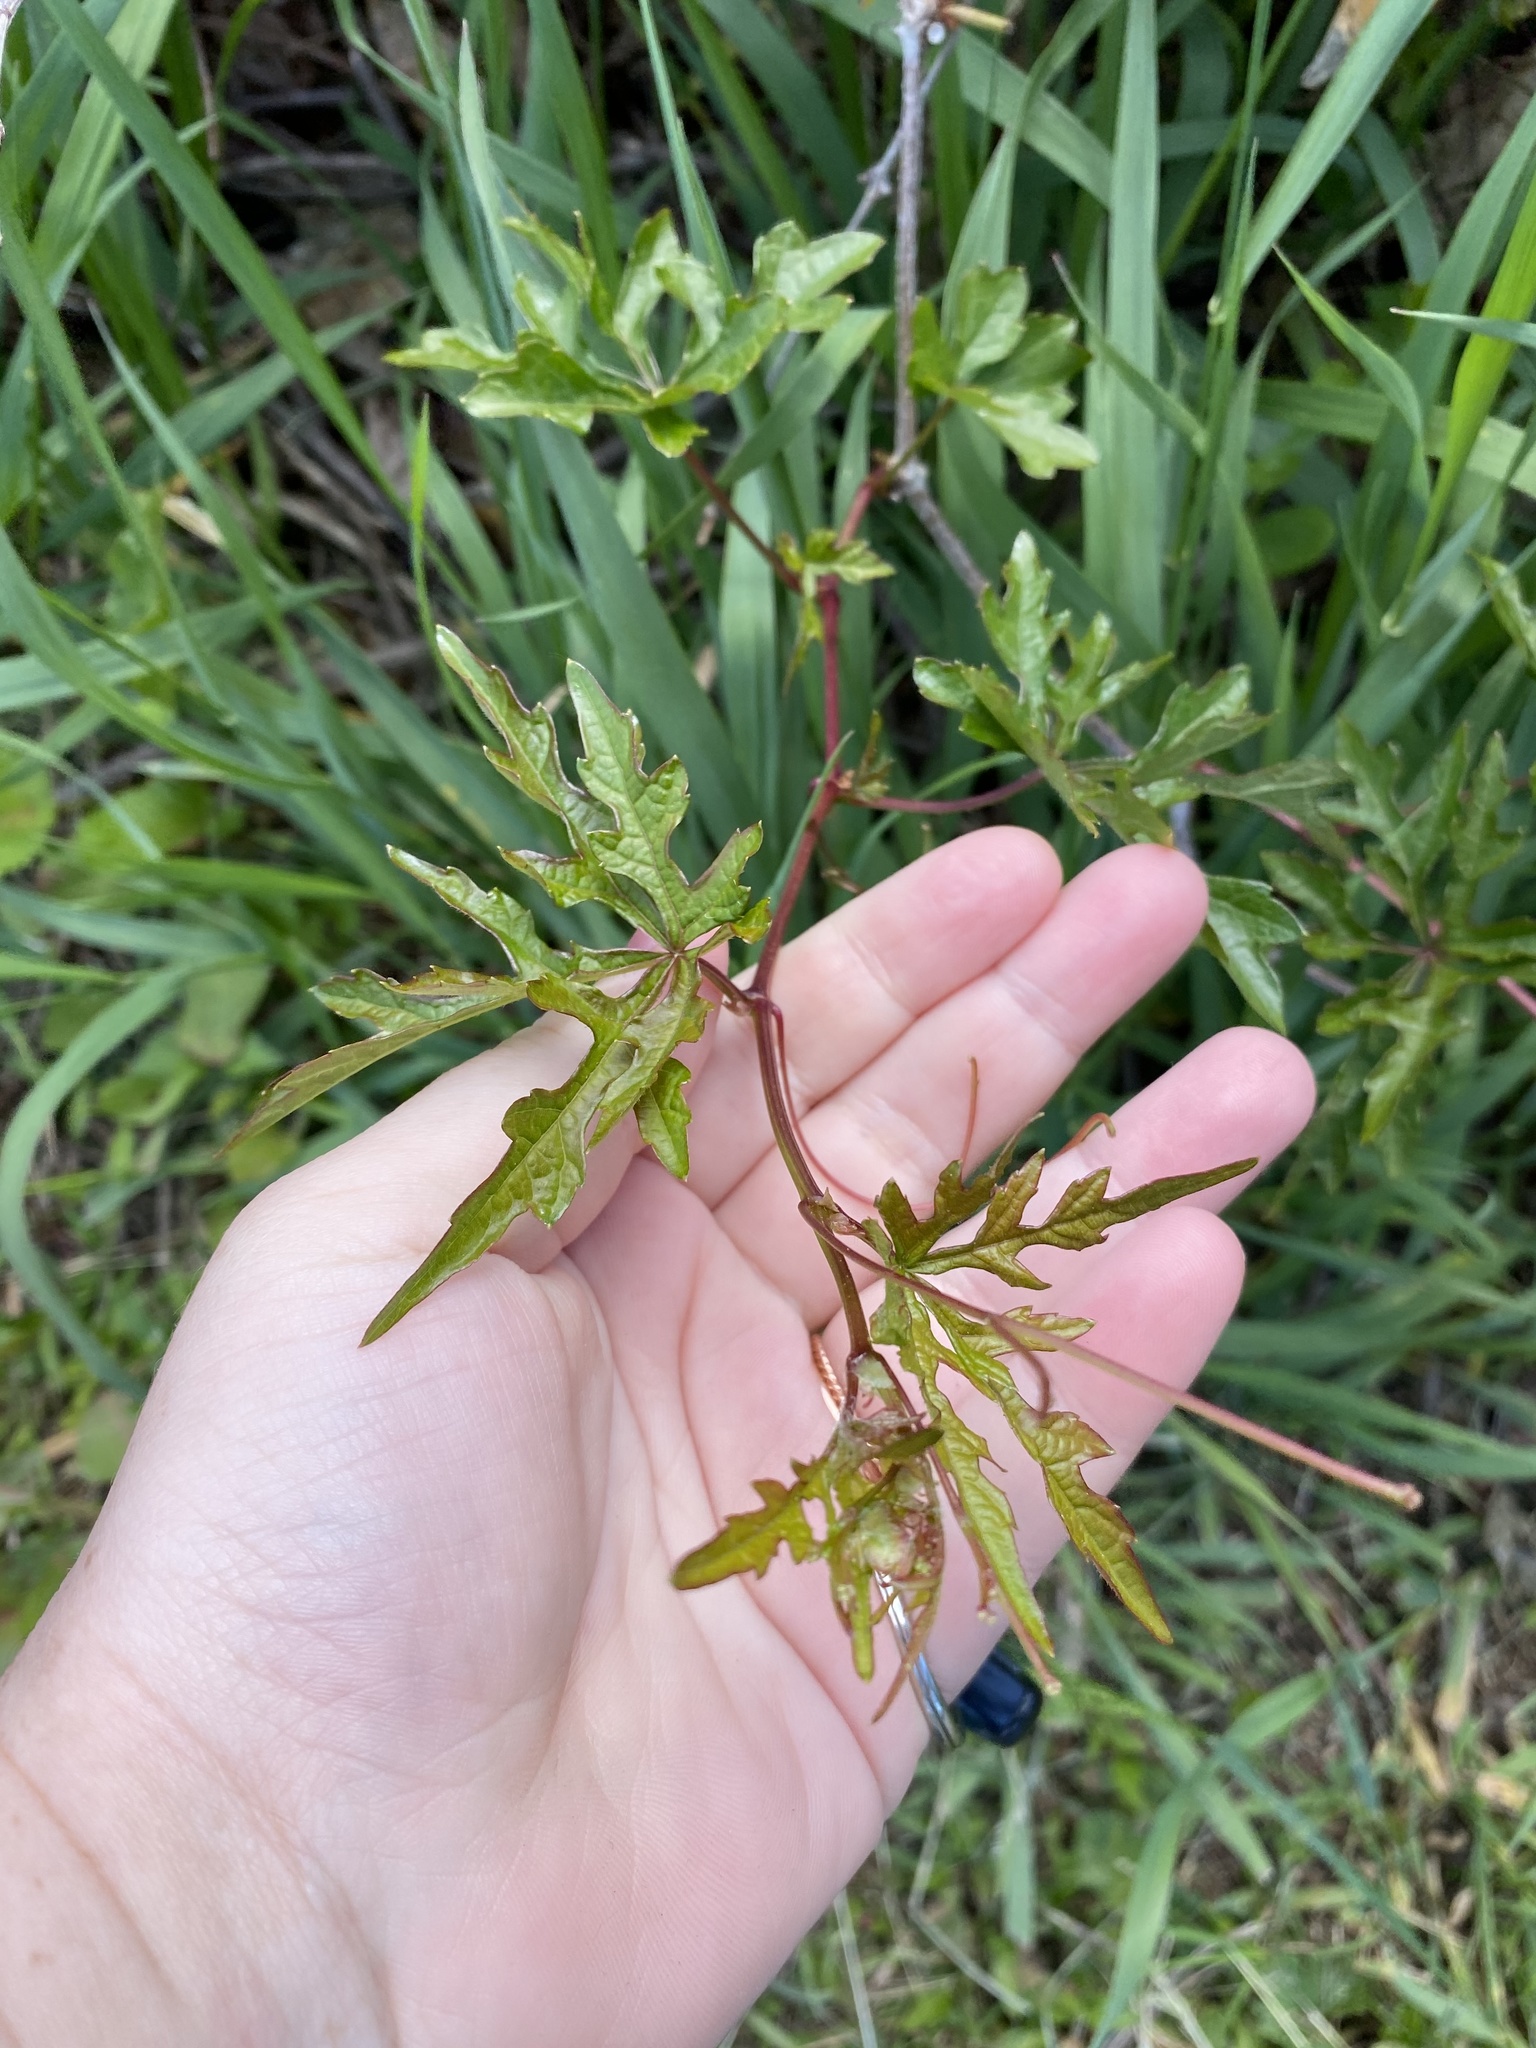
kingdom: Plantae
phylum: Tracheophyta
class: Magnoliopsida
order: Vitales
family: Vitaceae
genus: Ampelopsis
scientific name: Ampelopsis glandulosa
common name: Amur peppervine
